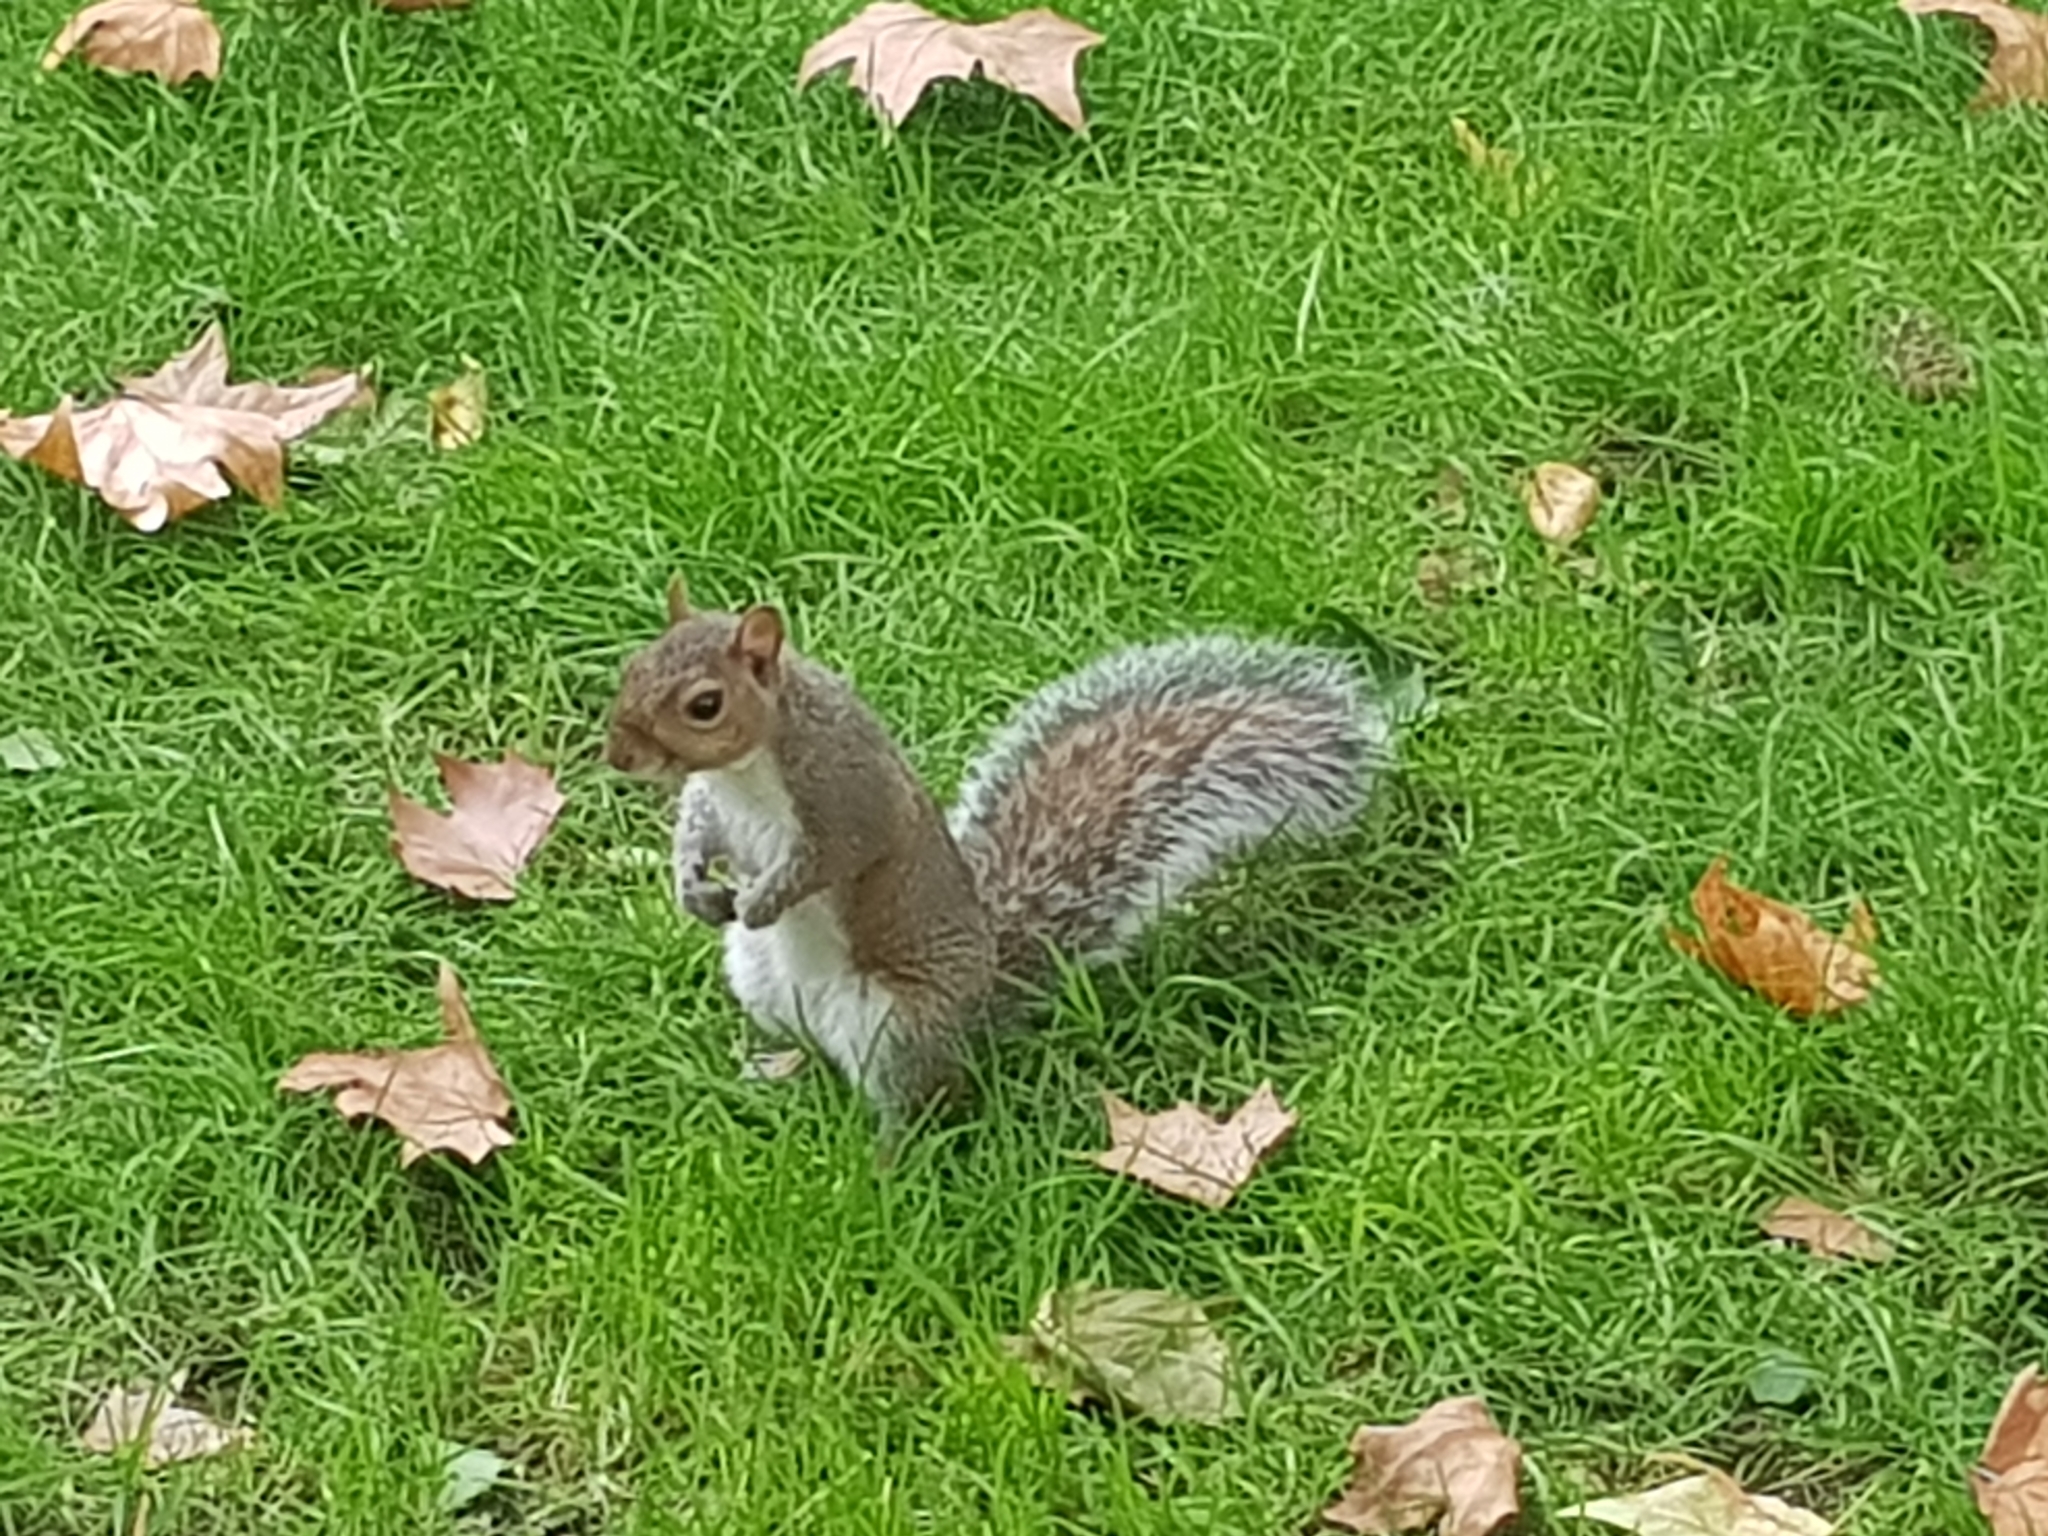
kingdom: Animalia
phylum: Chordata
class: Mammalia
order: Rodentia
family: Sciuridae
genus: Sciurus
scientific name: Sciurus carolinensis
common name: Eastern gray squirrel
